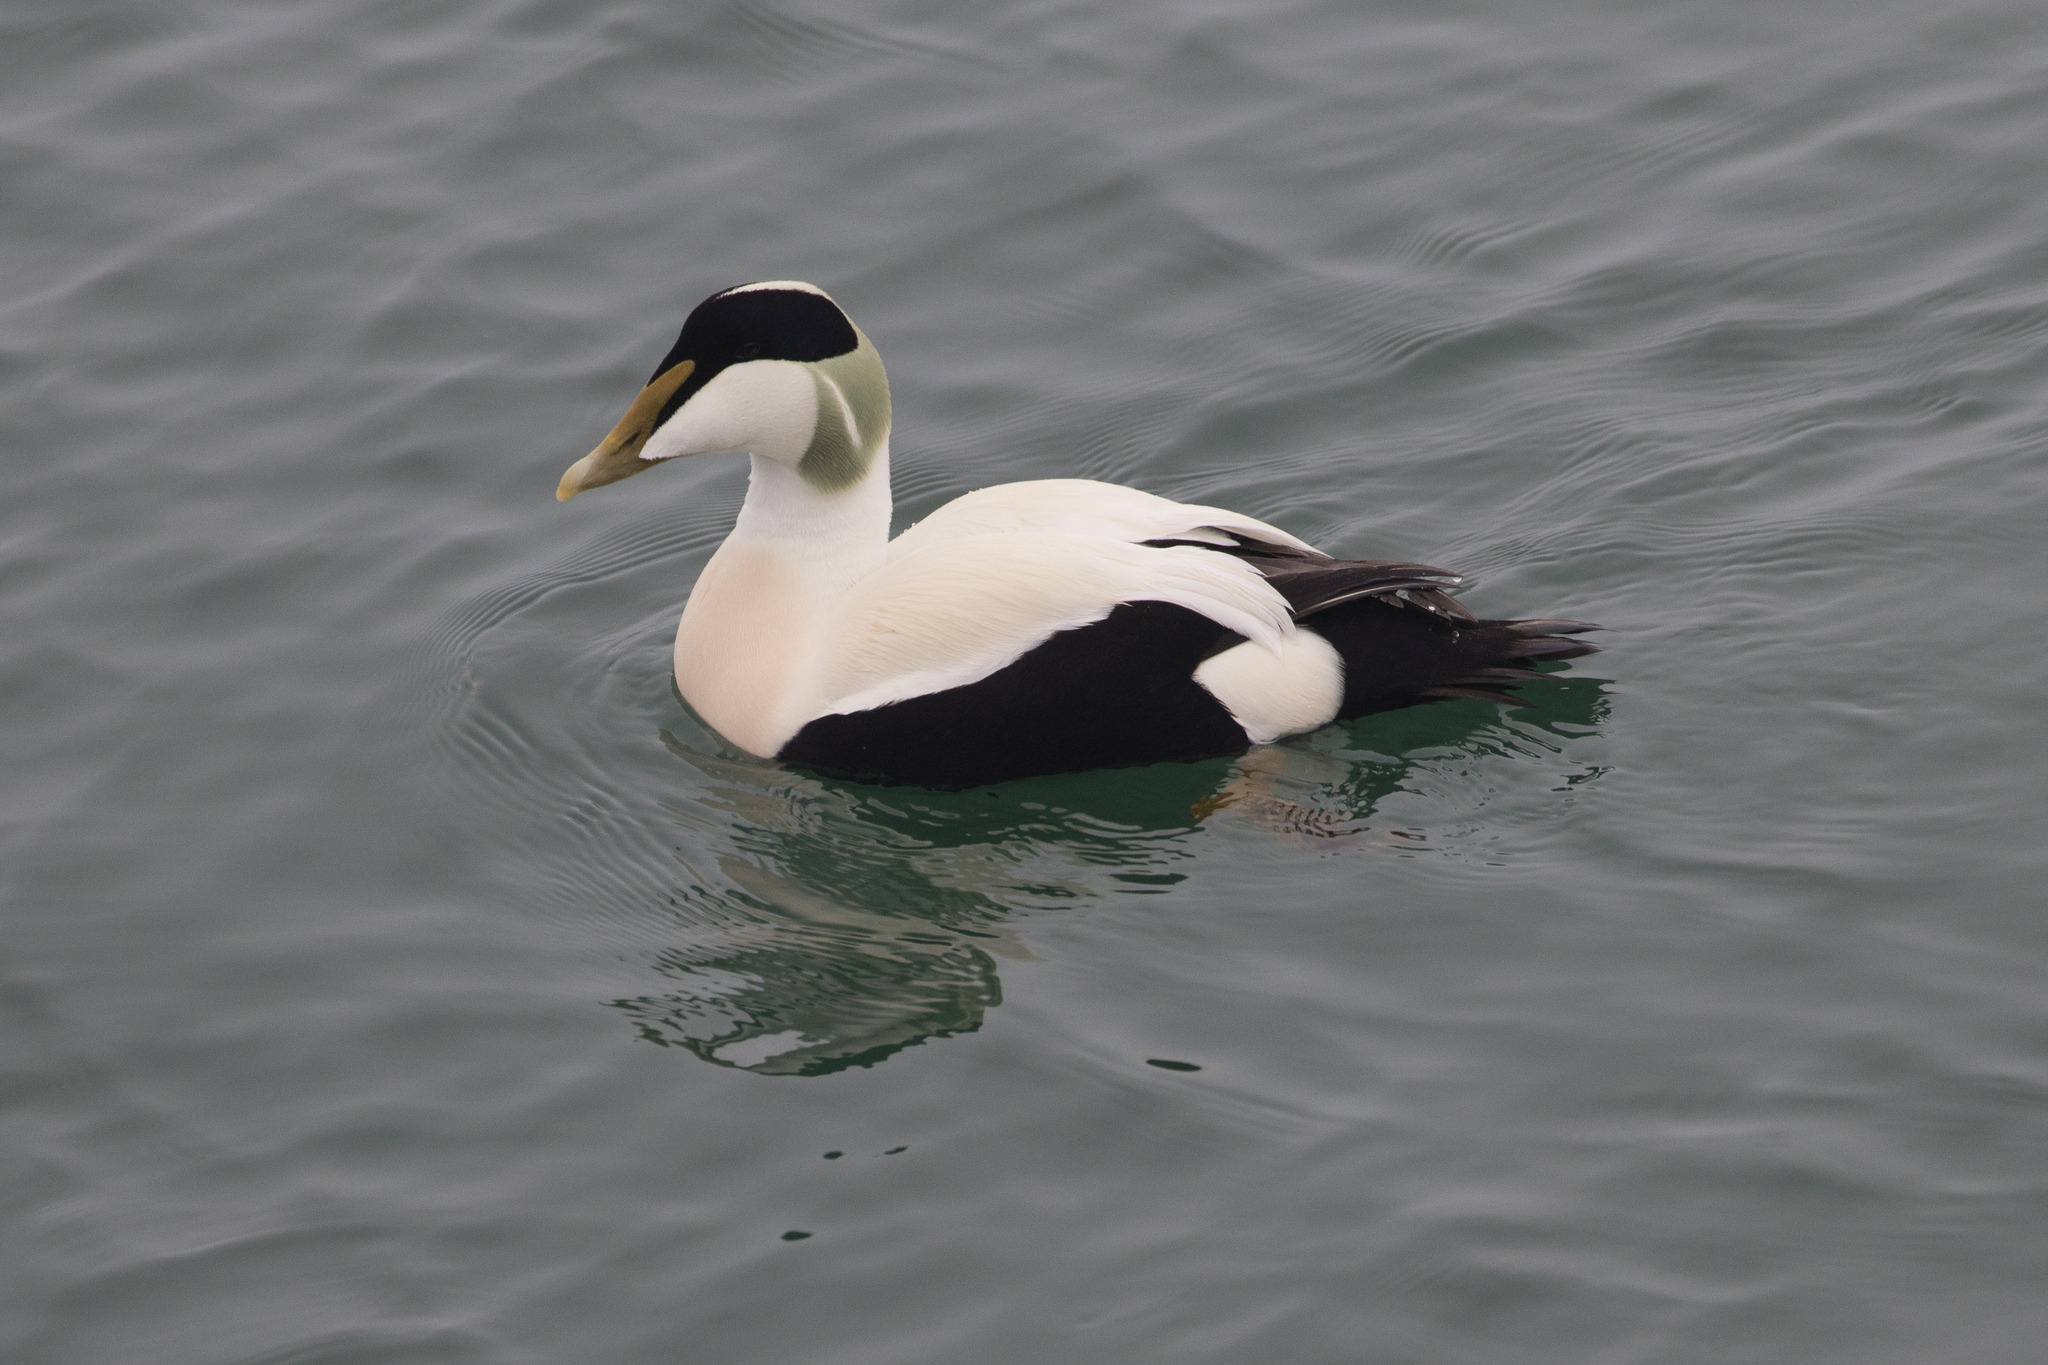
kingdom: Animalia
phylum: Chordata
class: Aves
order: Anseriformes
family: Anatidae
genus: Somateria
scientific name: Somateria mollissima
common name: Common eider
